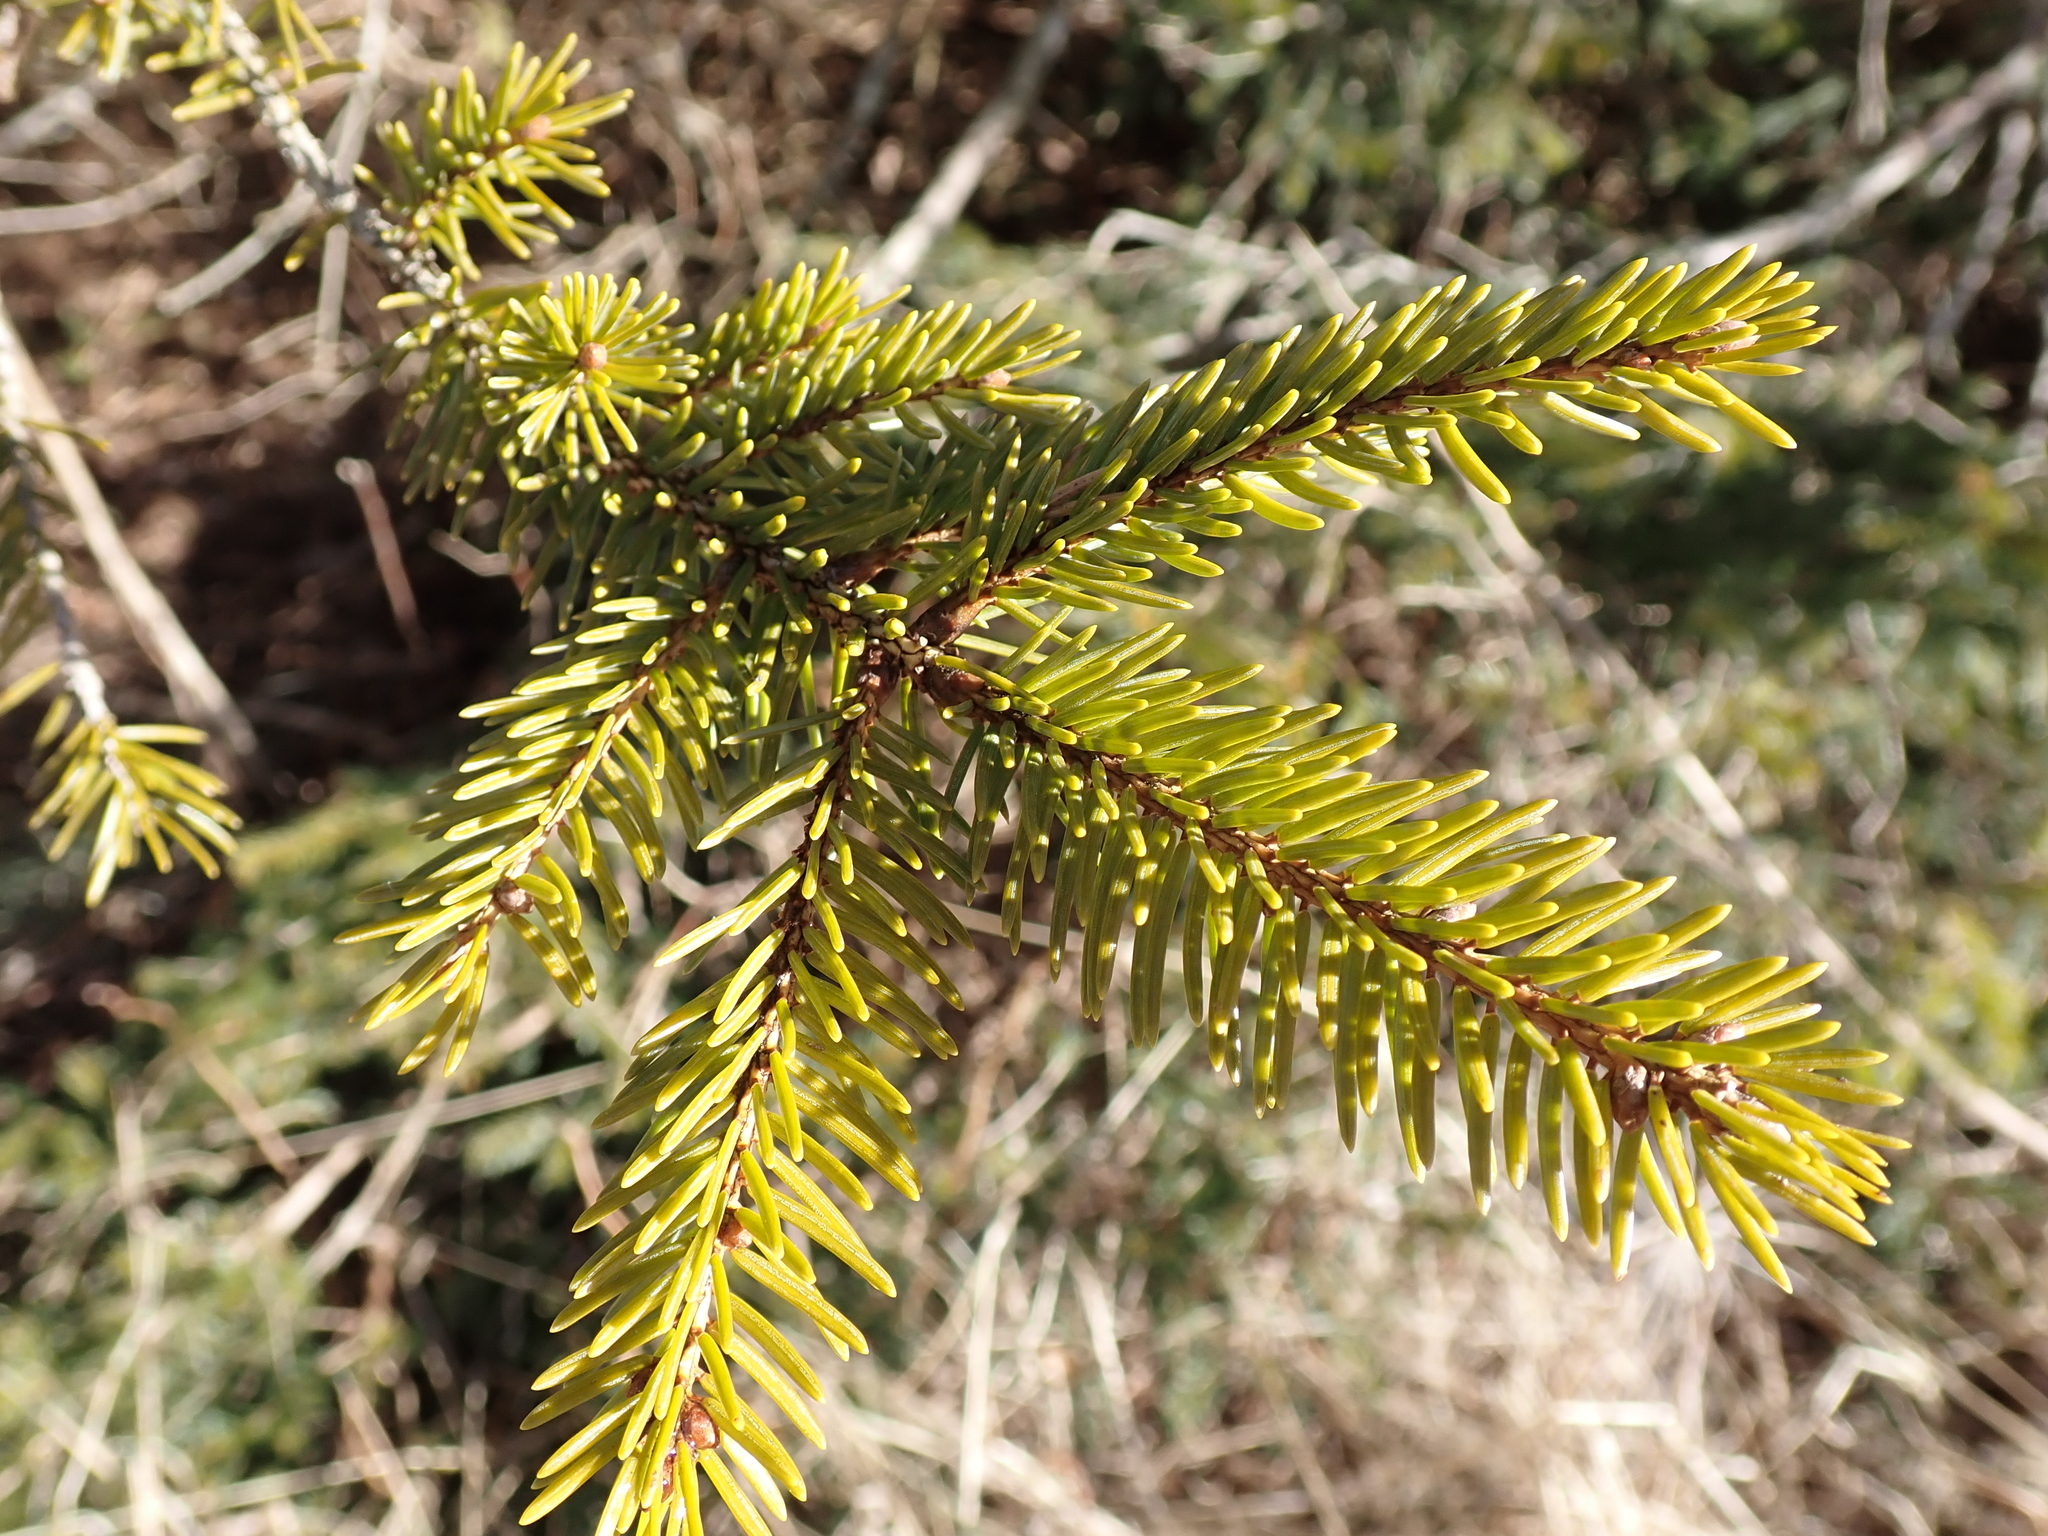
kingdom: Plantae
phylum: Tracheophyta
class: Pinopsida
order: Pinales
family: Pinaceae
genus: Picea
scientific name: Picea abies
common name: Norway spruce
